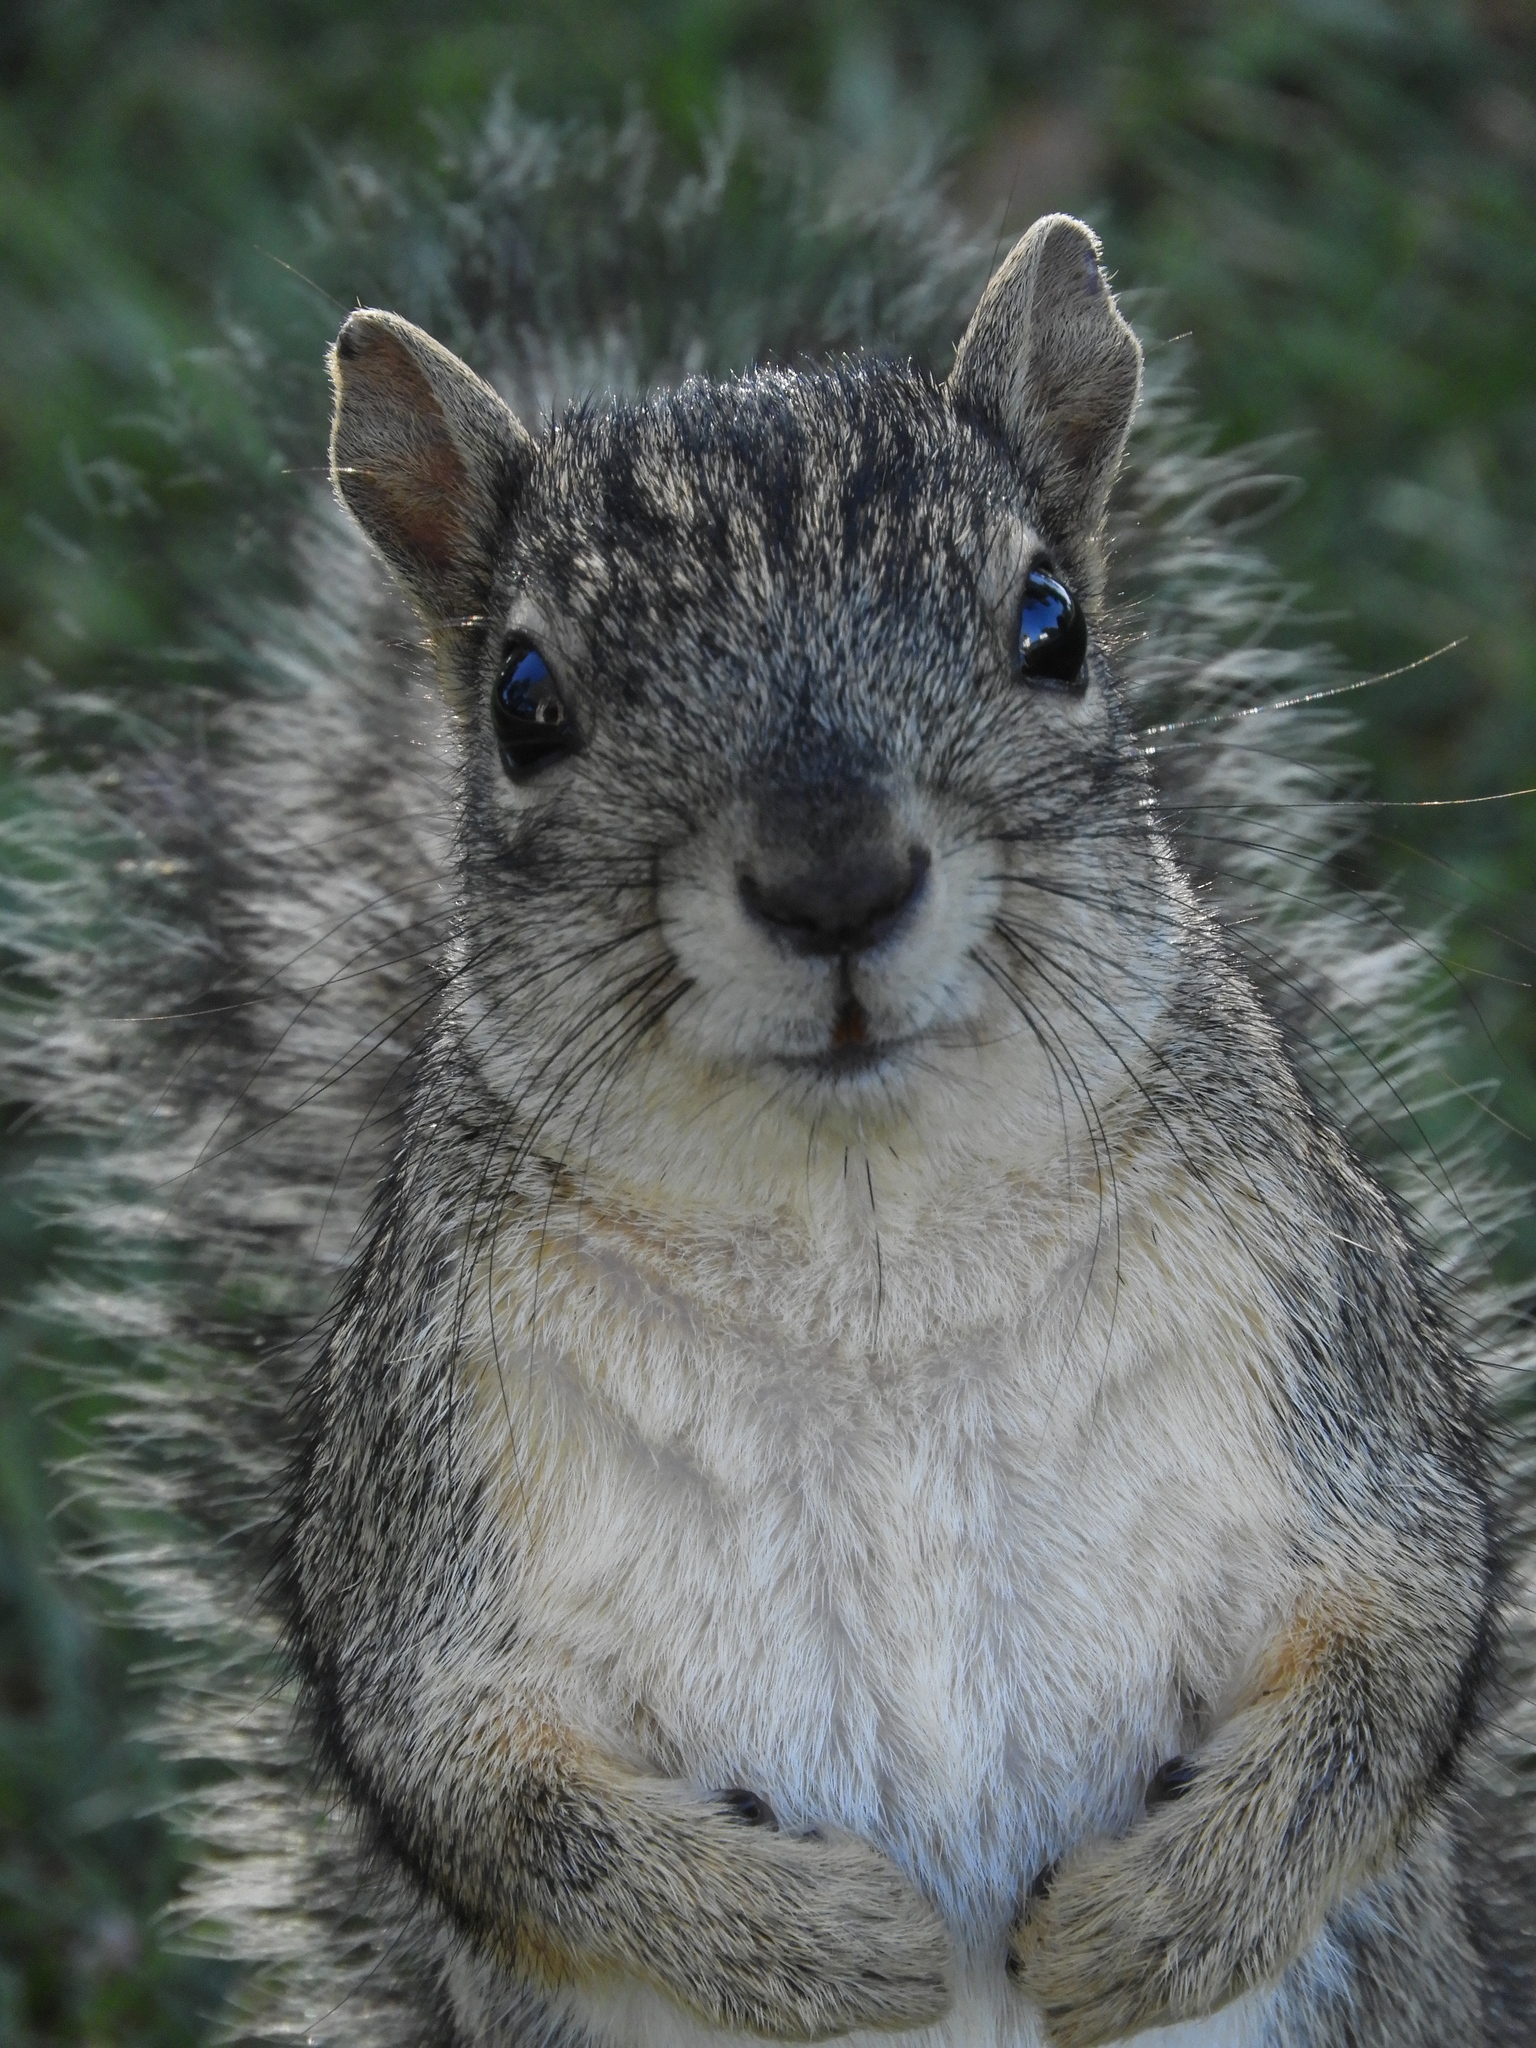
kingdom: Animalia
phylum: Chordata
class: Mammalia
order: Rodentia
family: Sciuridae
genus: Sciurus
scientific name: Sciurus carolinensis
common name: Eastern gray squirrel
